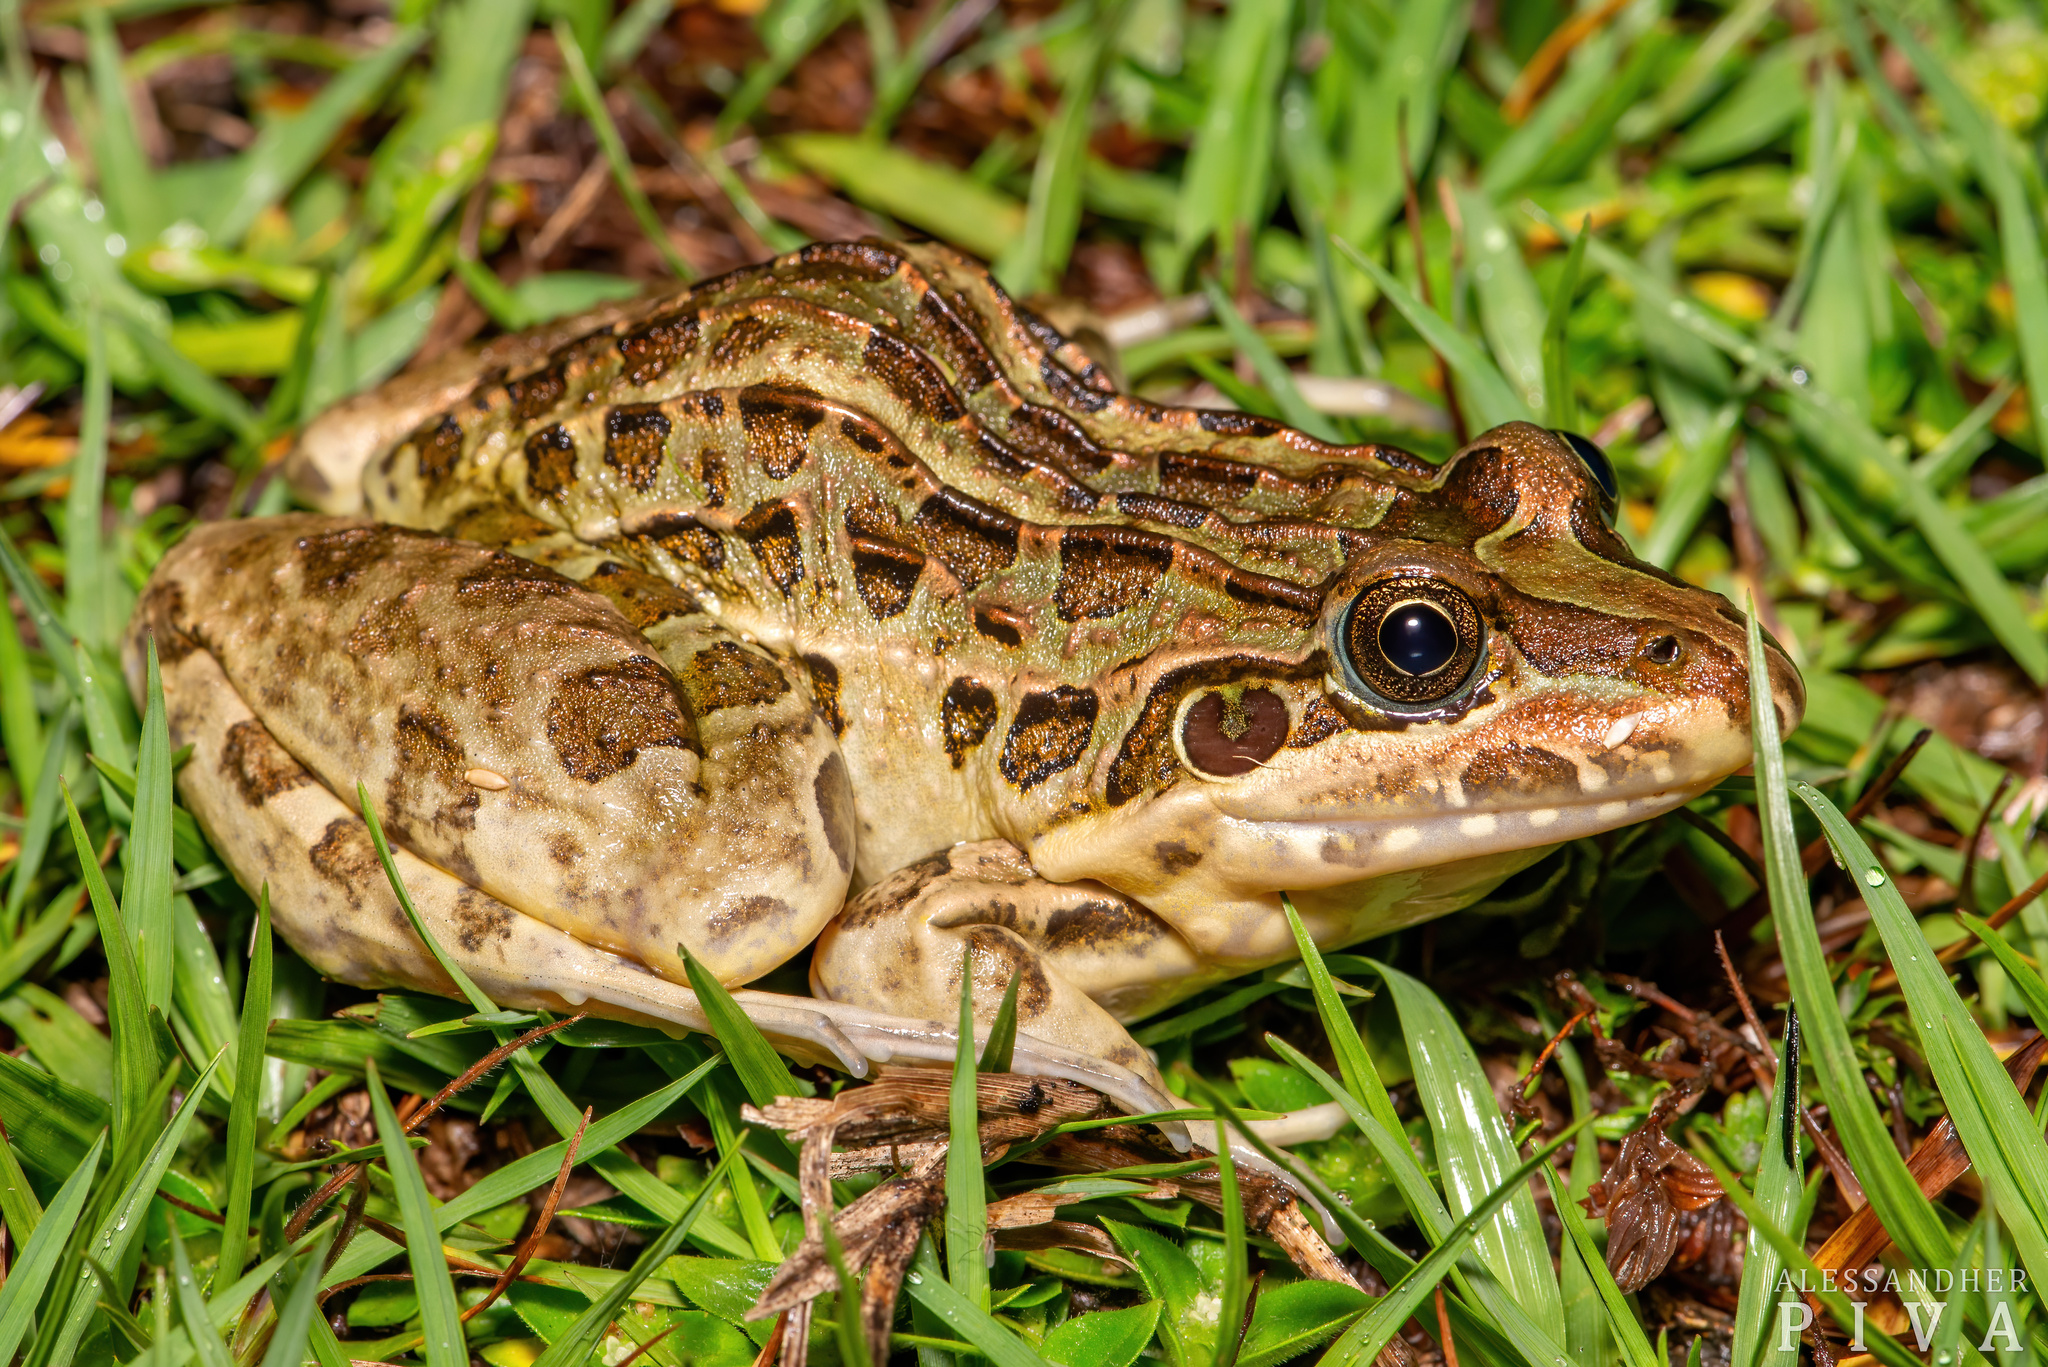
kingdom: Animalia
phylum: Chordata
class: Amphibia
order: Anura
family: Leptodactylidae
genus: Leptodactylus
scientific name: Leptodactylus luctator
